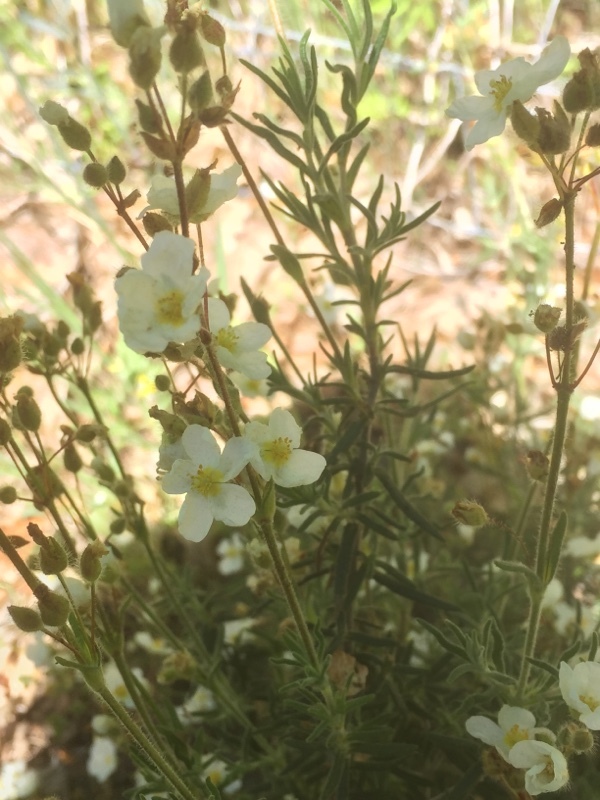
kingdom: Plantae
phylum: Tracheophyta
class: Magnoliopsida
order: Malvales
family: Cistaceae
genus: Halimium
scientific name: Halimium umbellatum
